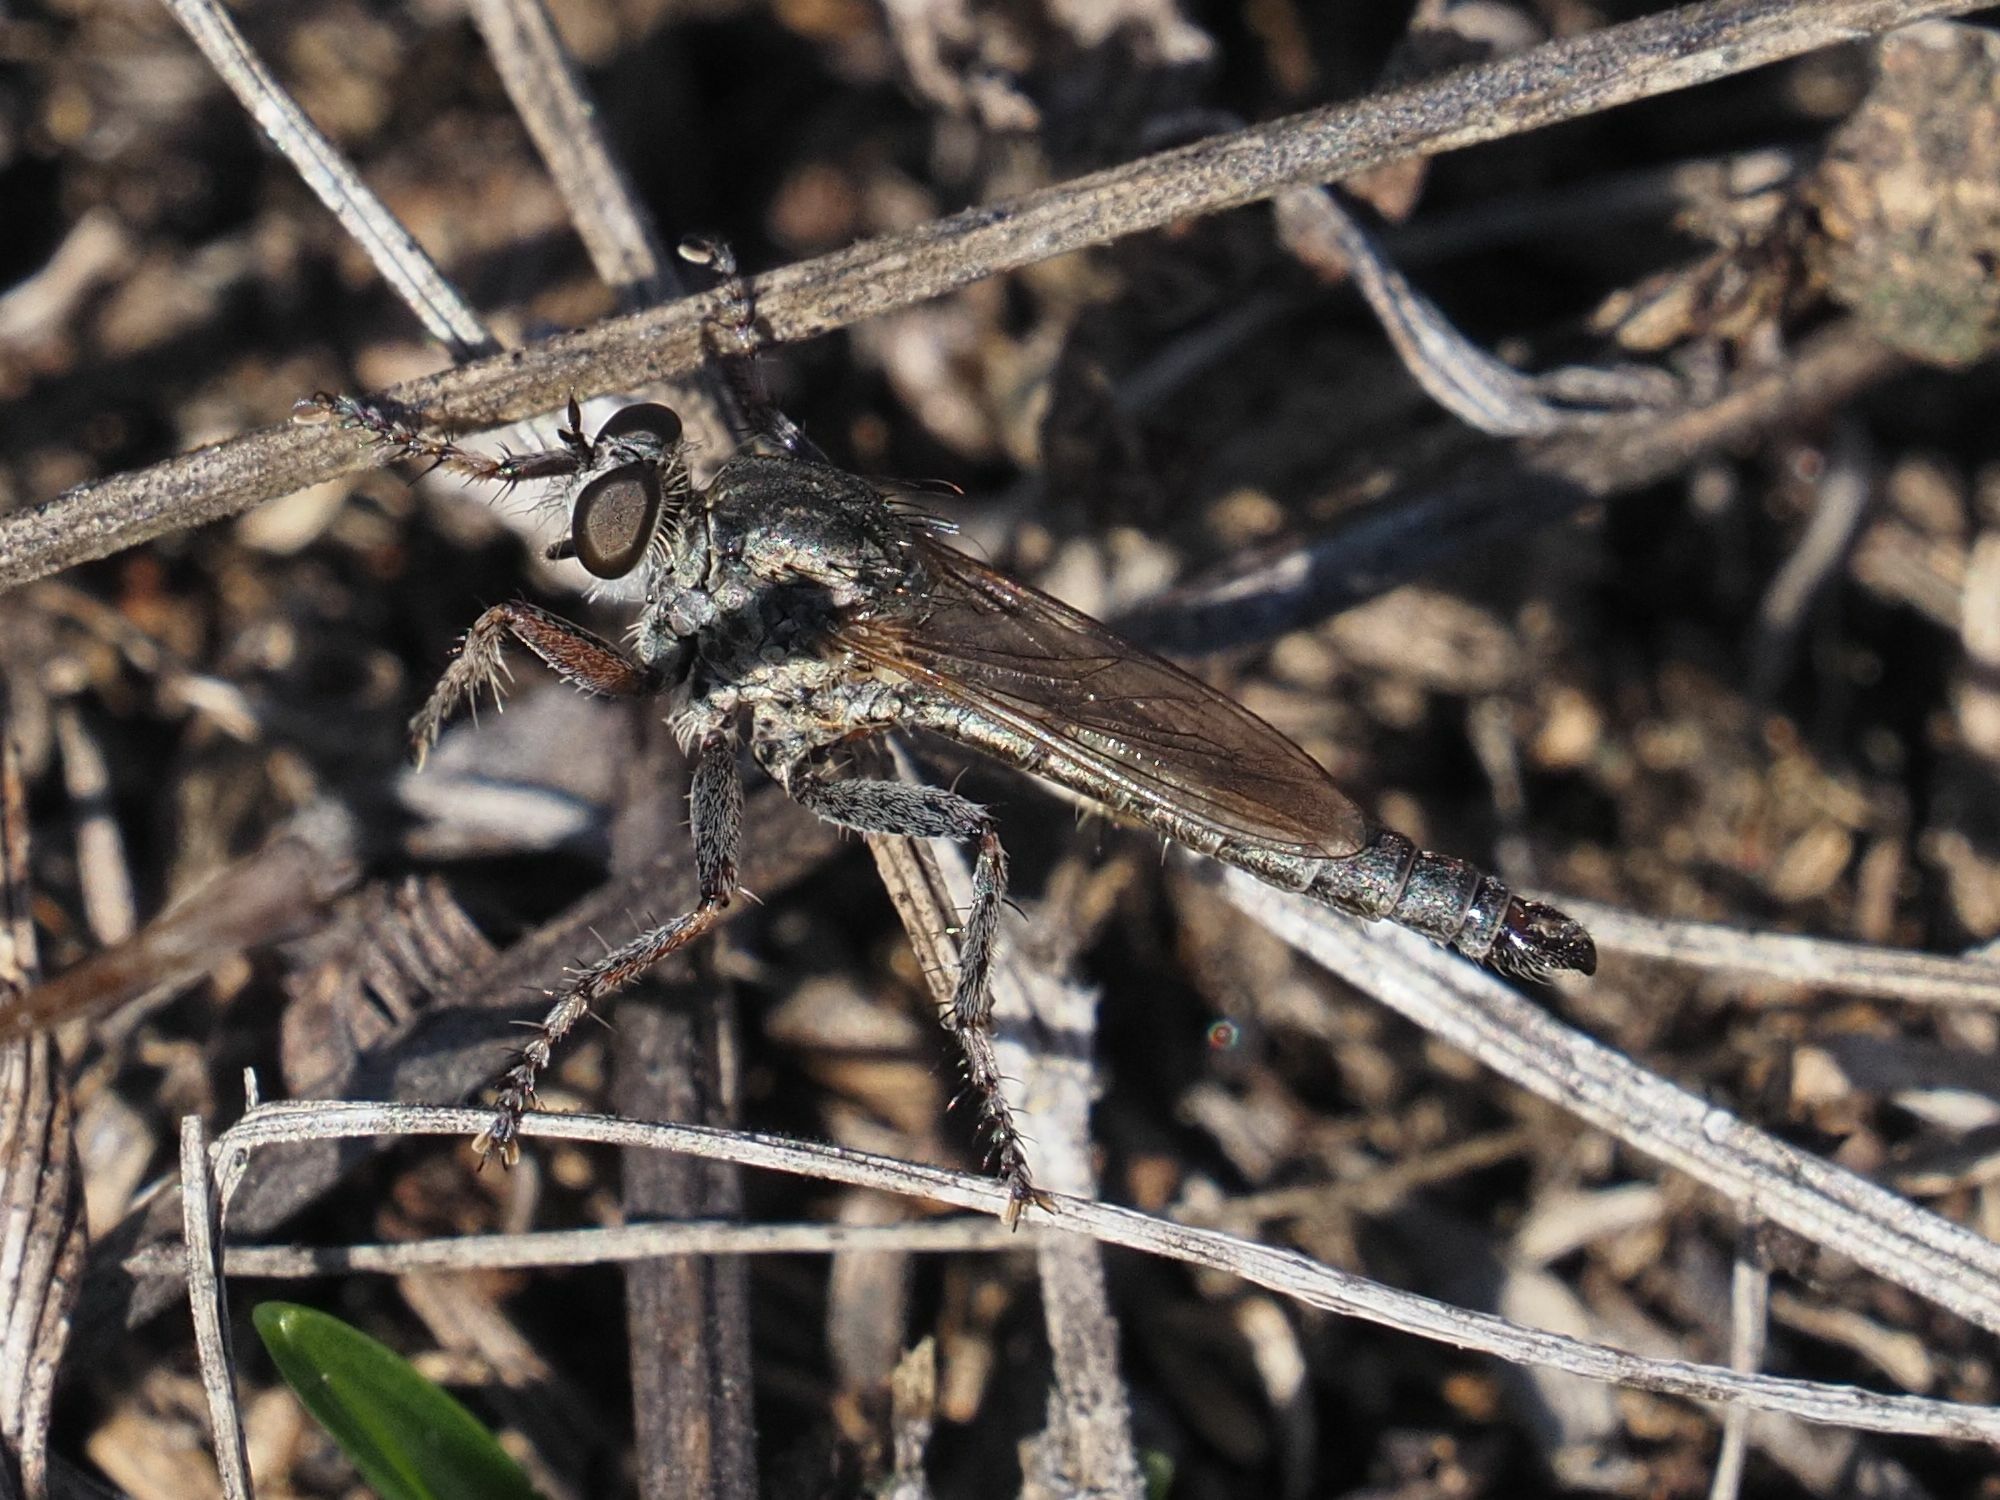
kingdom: Animalia
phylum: Arthropoda
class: Insecta
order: Diptera
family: Asilidae
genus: Epitriptus
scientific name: Epitriptus setosulus
